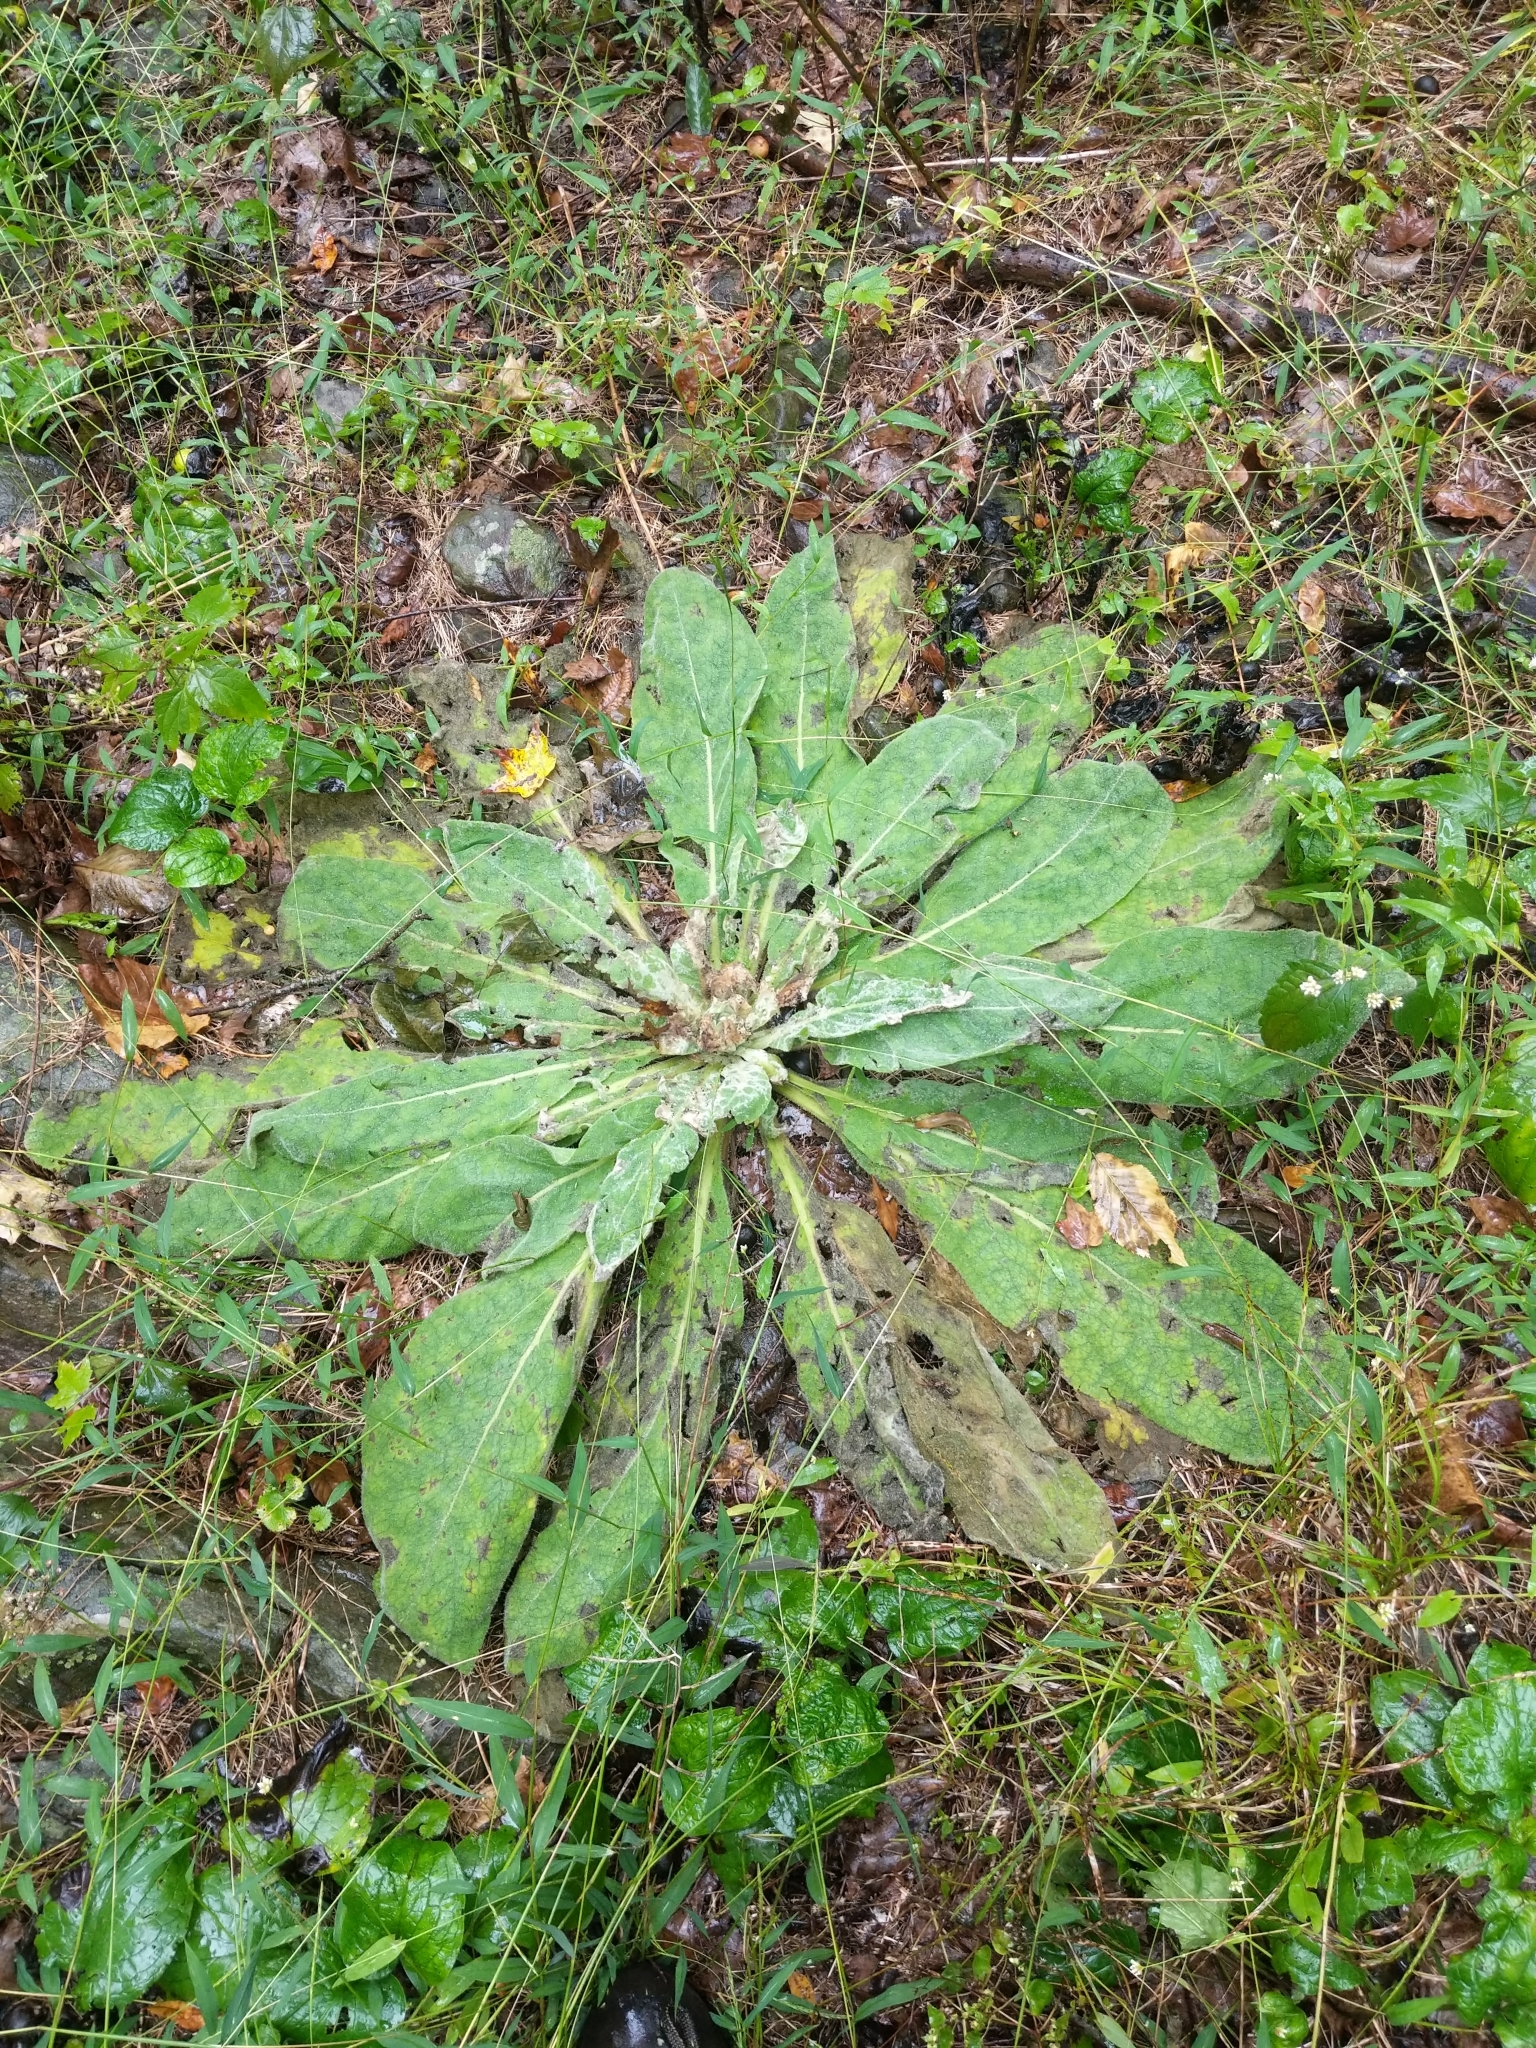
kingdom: Plantae
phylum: Tracheophyta
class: Magnoliopsida
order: Lamiales
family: Scrophulariaceae
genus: Verbascum
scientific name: Verbascum thapsus
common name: Common mullein
